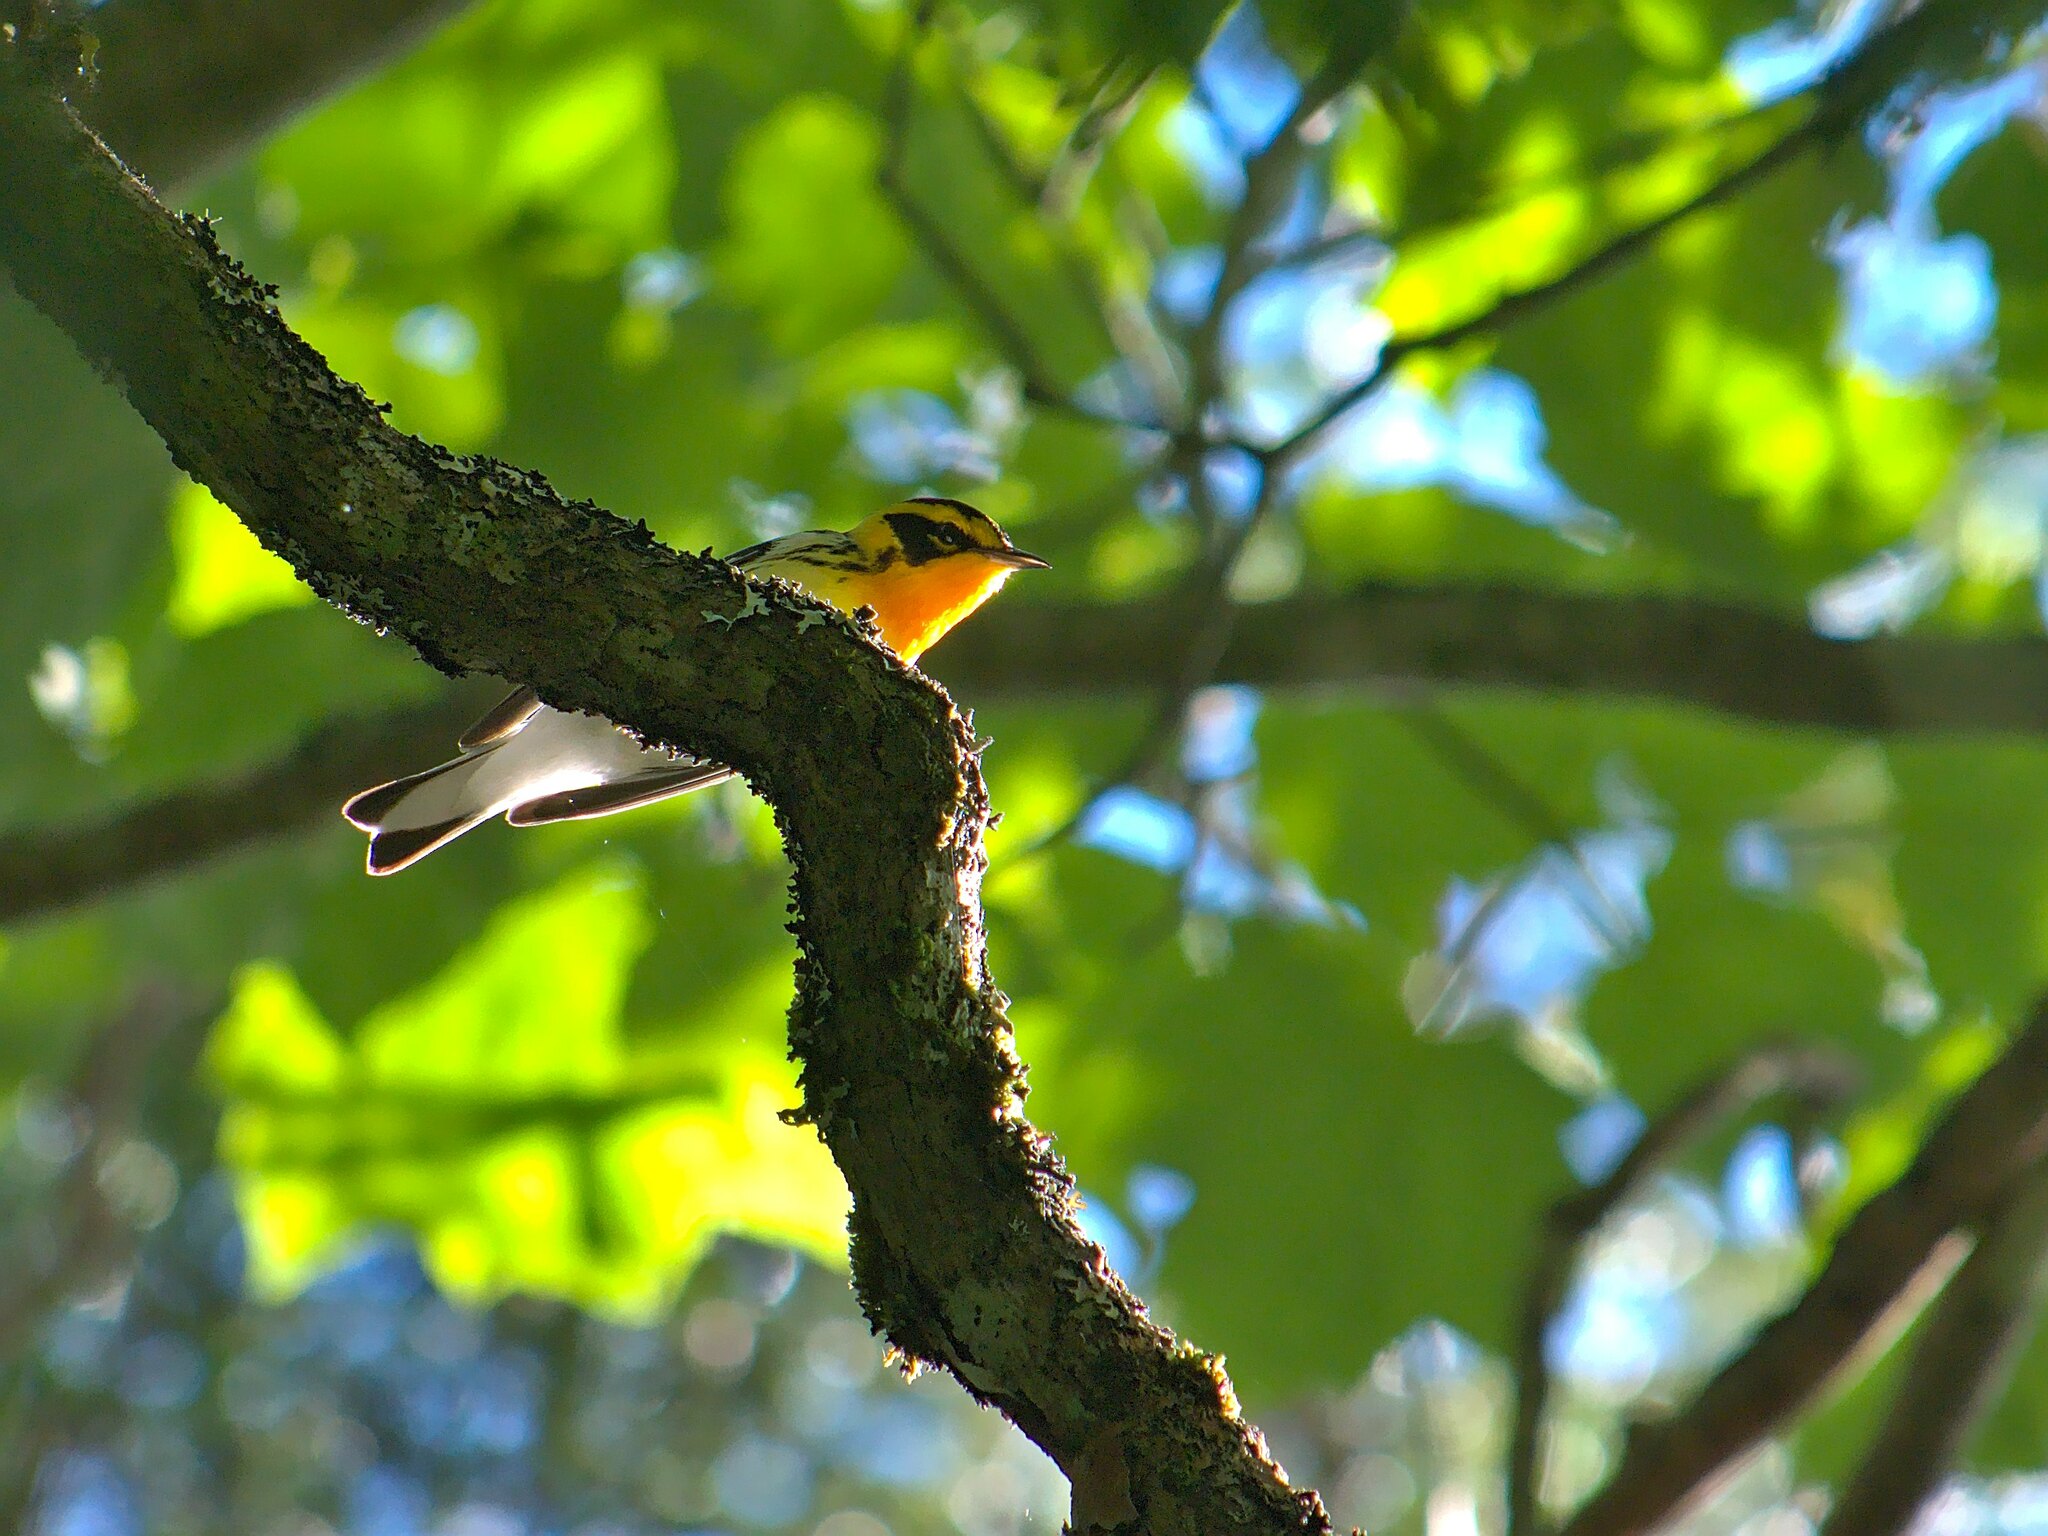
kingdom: Animalia
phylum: Chordata
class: Aves
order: Passeriformes
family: Parulidae
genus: Setophaga
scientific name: Setophaga fusca
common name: Blackburnian warbler
